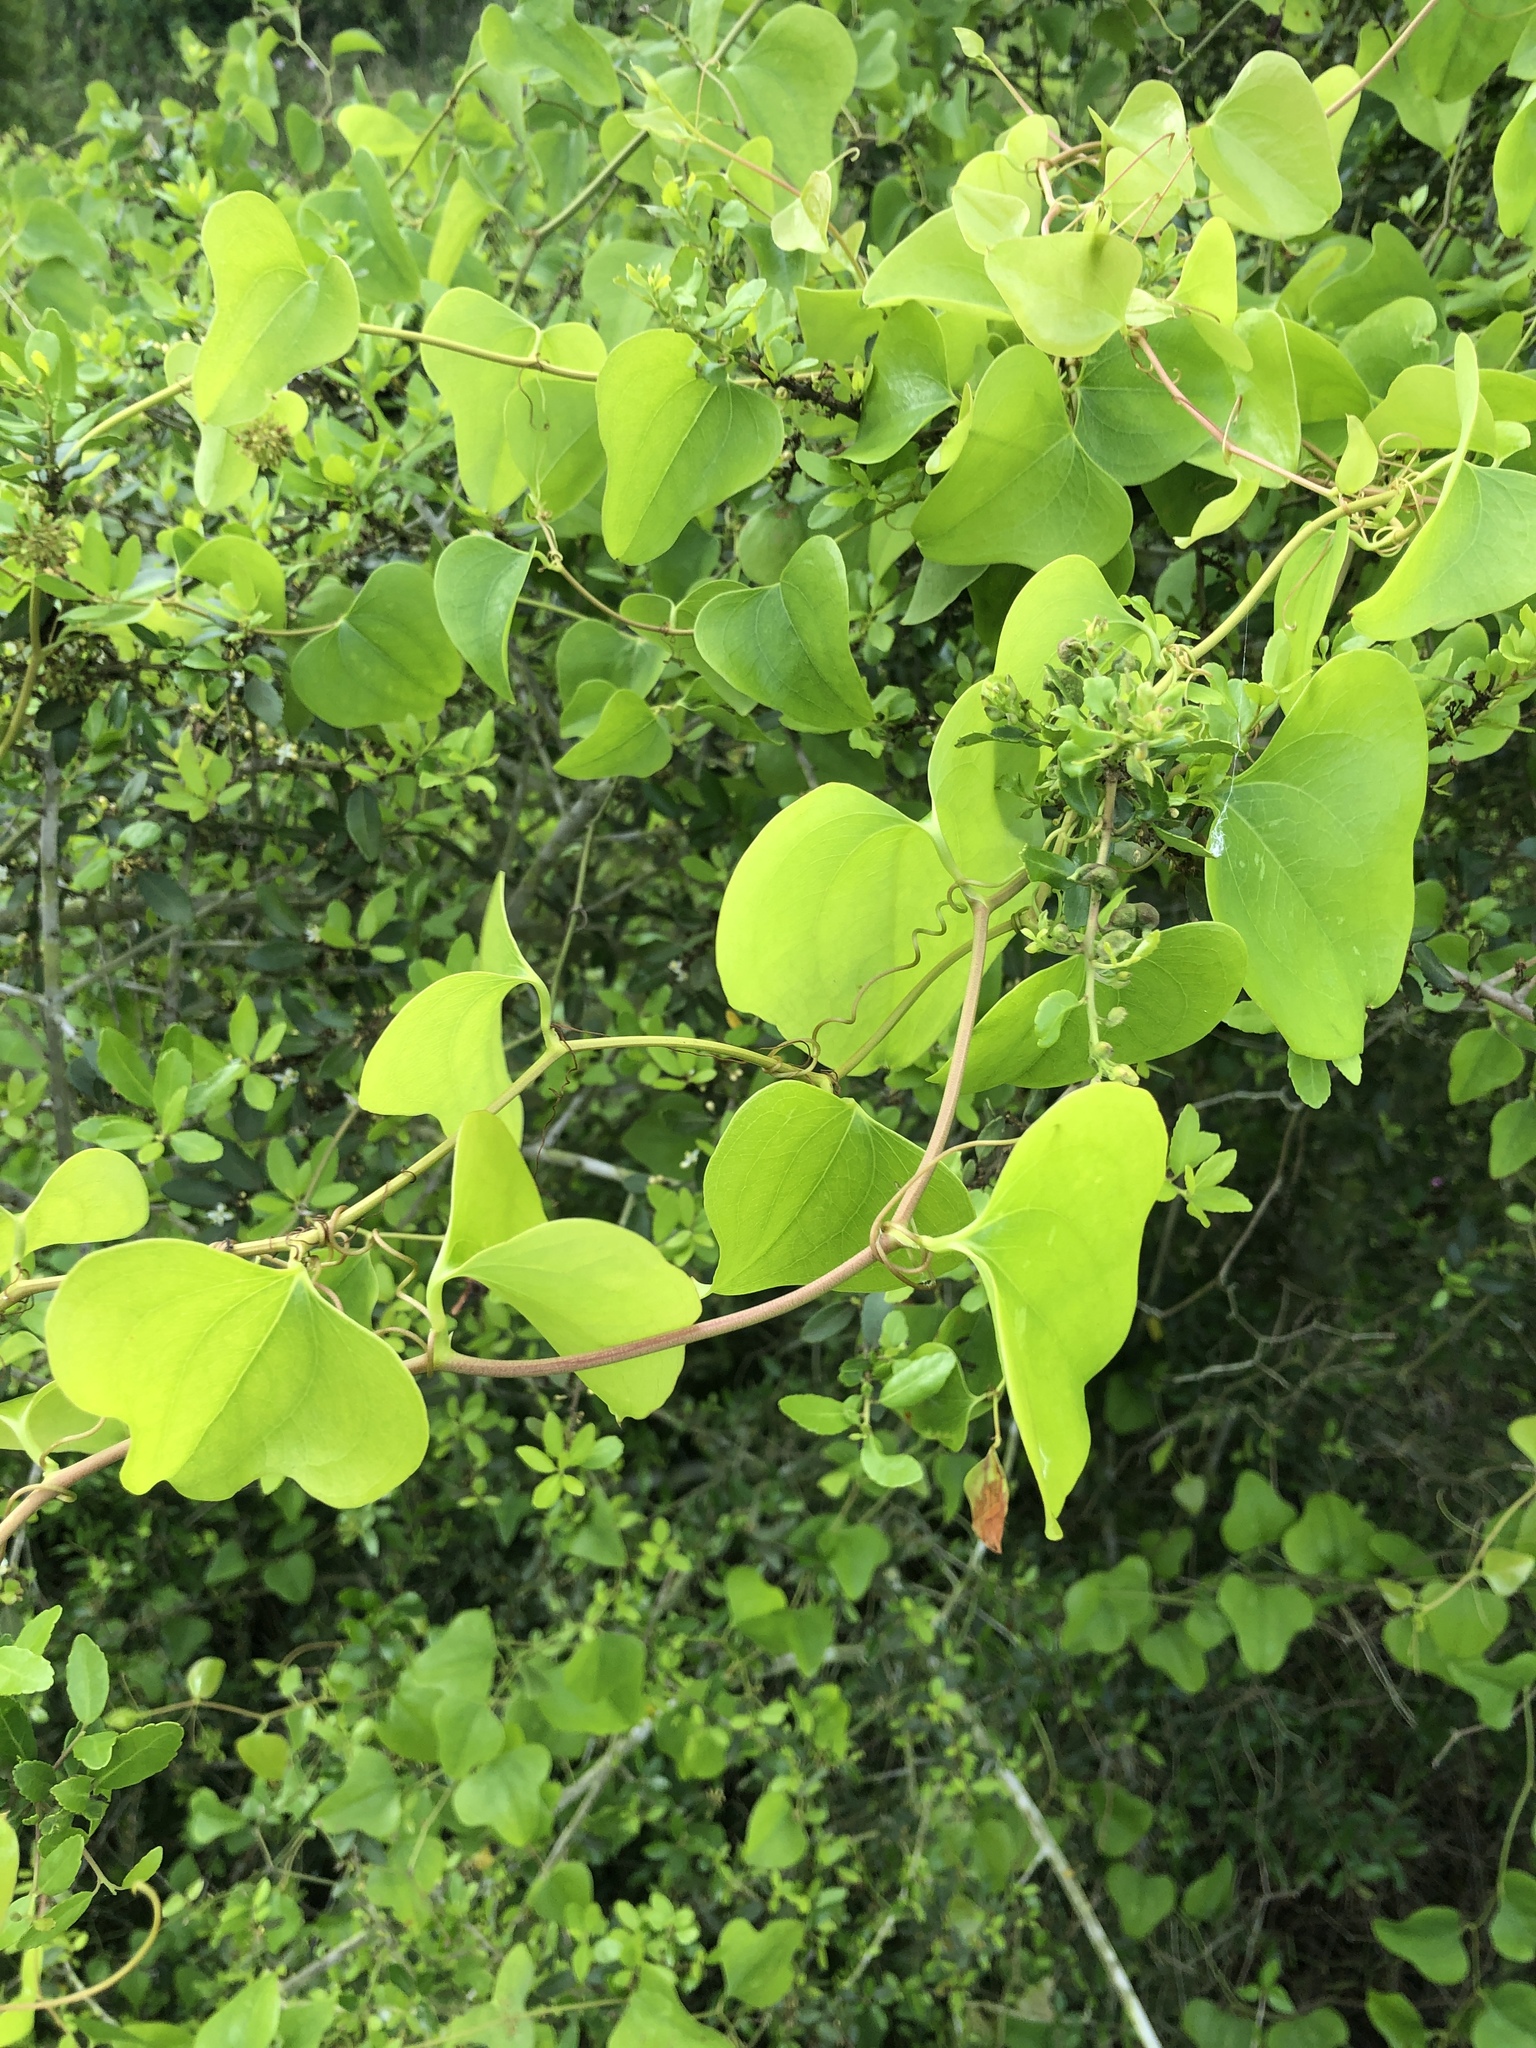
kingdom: Plantae
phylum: Tracheophyta
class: Liliopsida
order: Liliales
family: Smilacaceae
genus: Smilax
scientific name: Smilax bona-nox
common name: Catbrier
